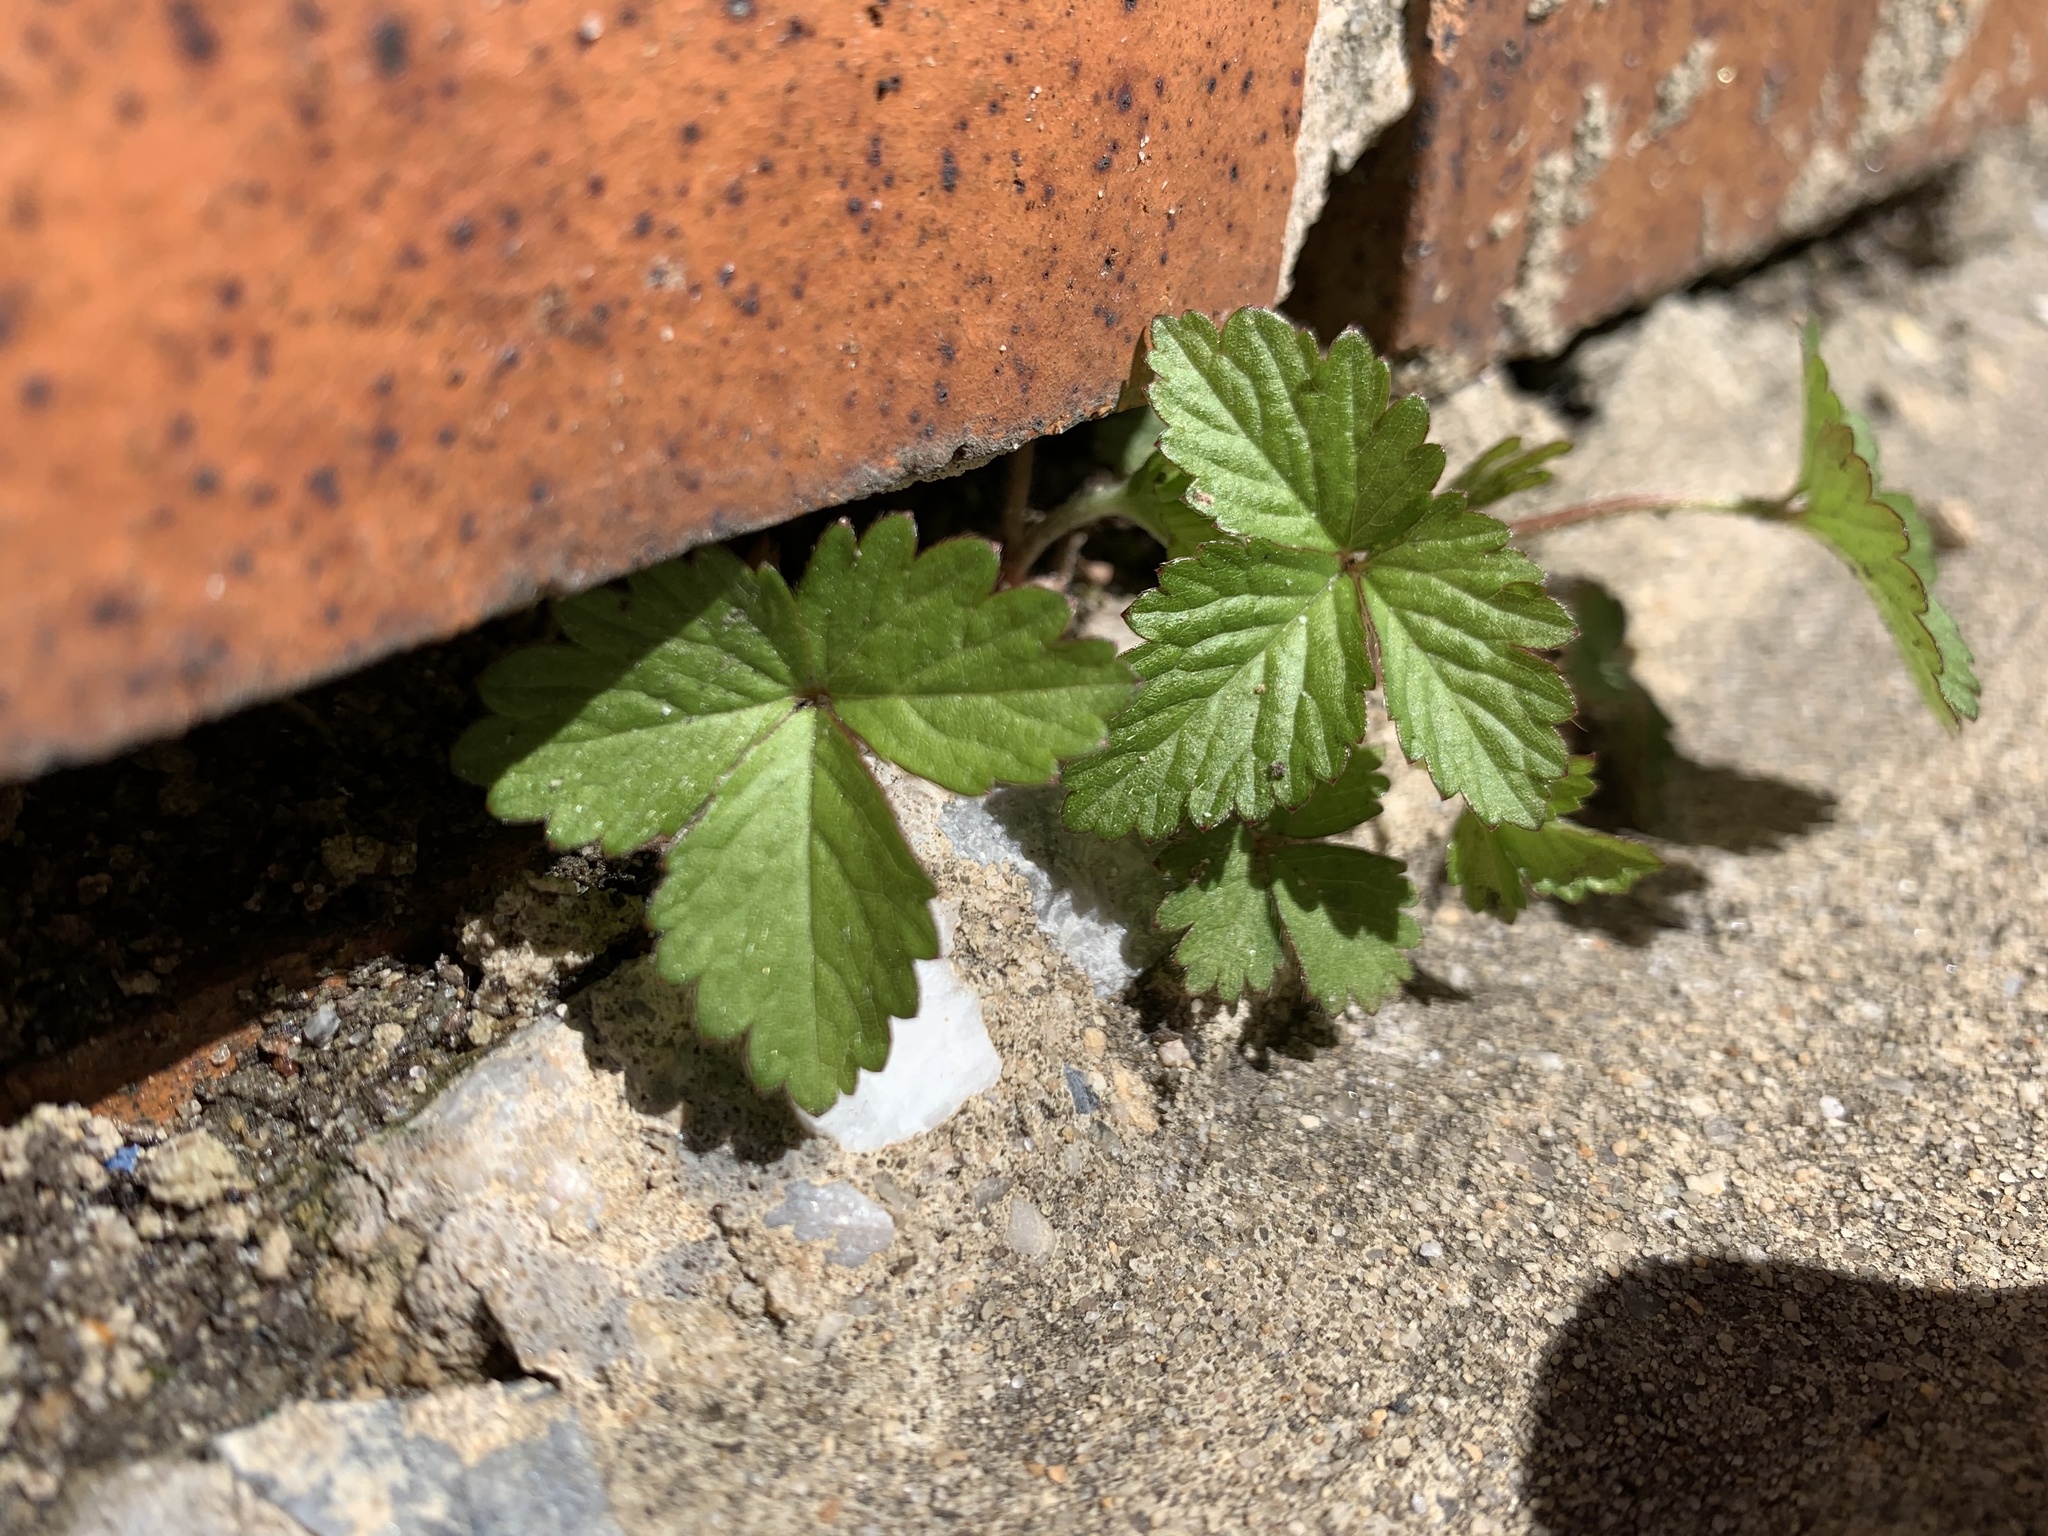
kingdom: Plantae
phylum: Tracheophyta
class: Magnoliopsida
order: Rosales
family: Rosaceae
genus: Potentilla
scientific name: Potentilla indica
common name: Yellow-flowered strawberry
